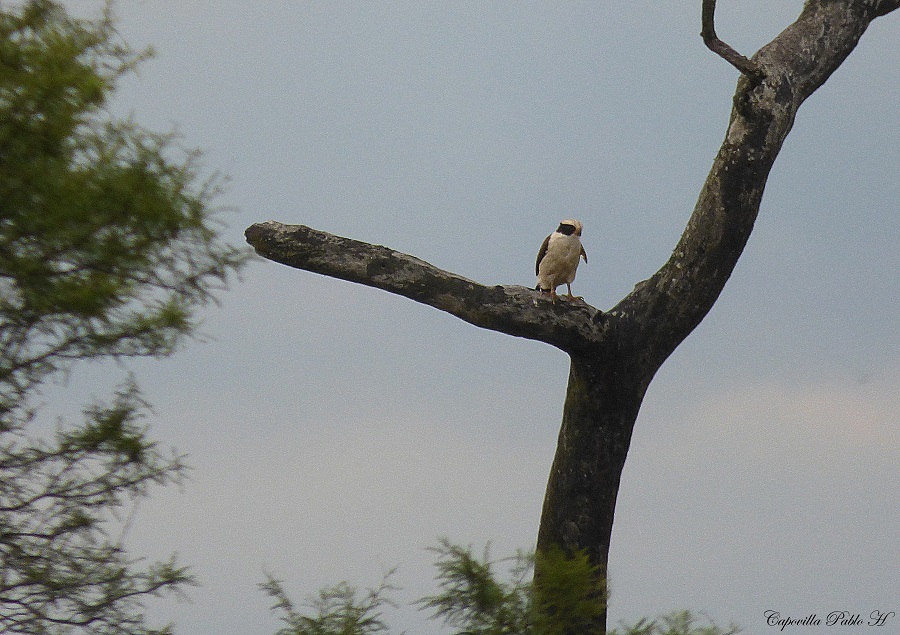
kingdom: Animalia
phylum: Chordata
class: Aves
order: Falconiformes
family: Falconidae
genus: Herpetotheres
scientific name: Herpetotheres cachinnans
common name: Laughing falcon
